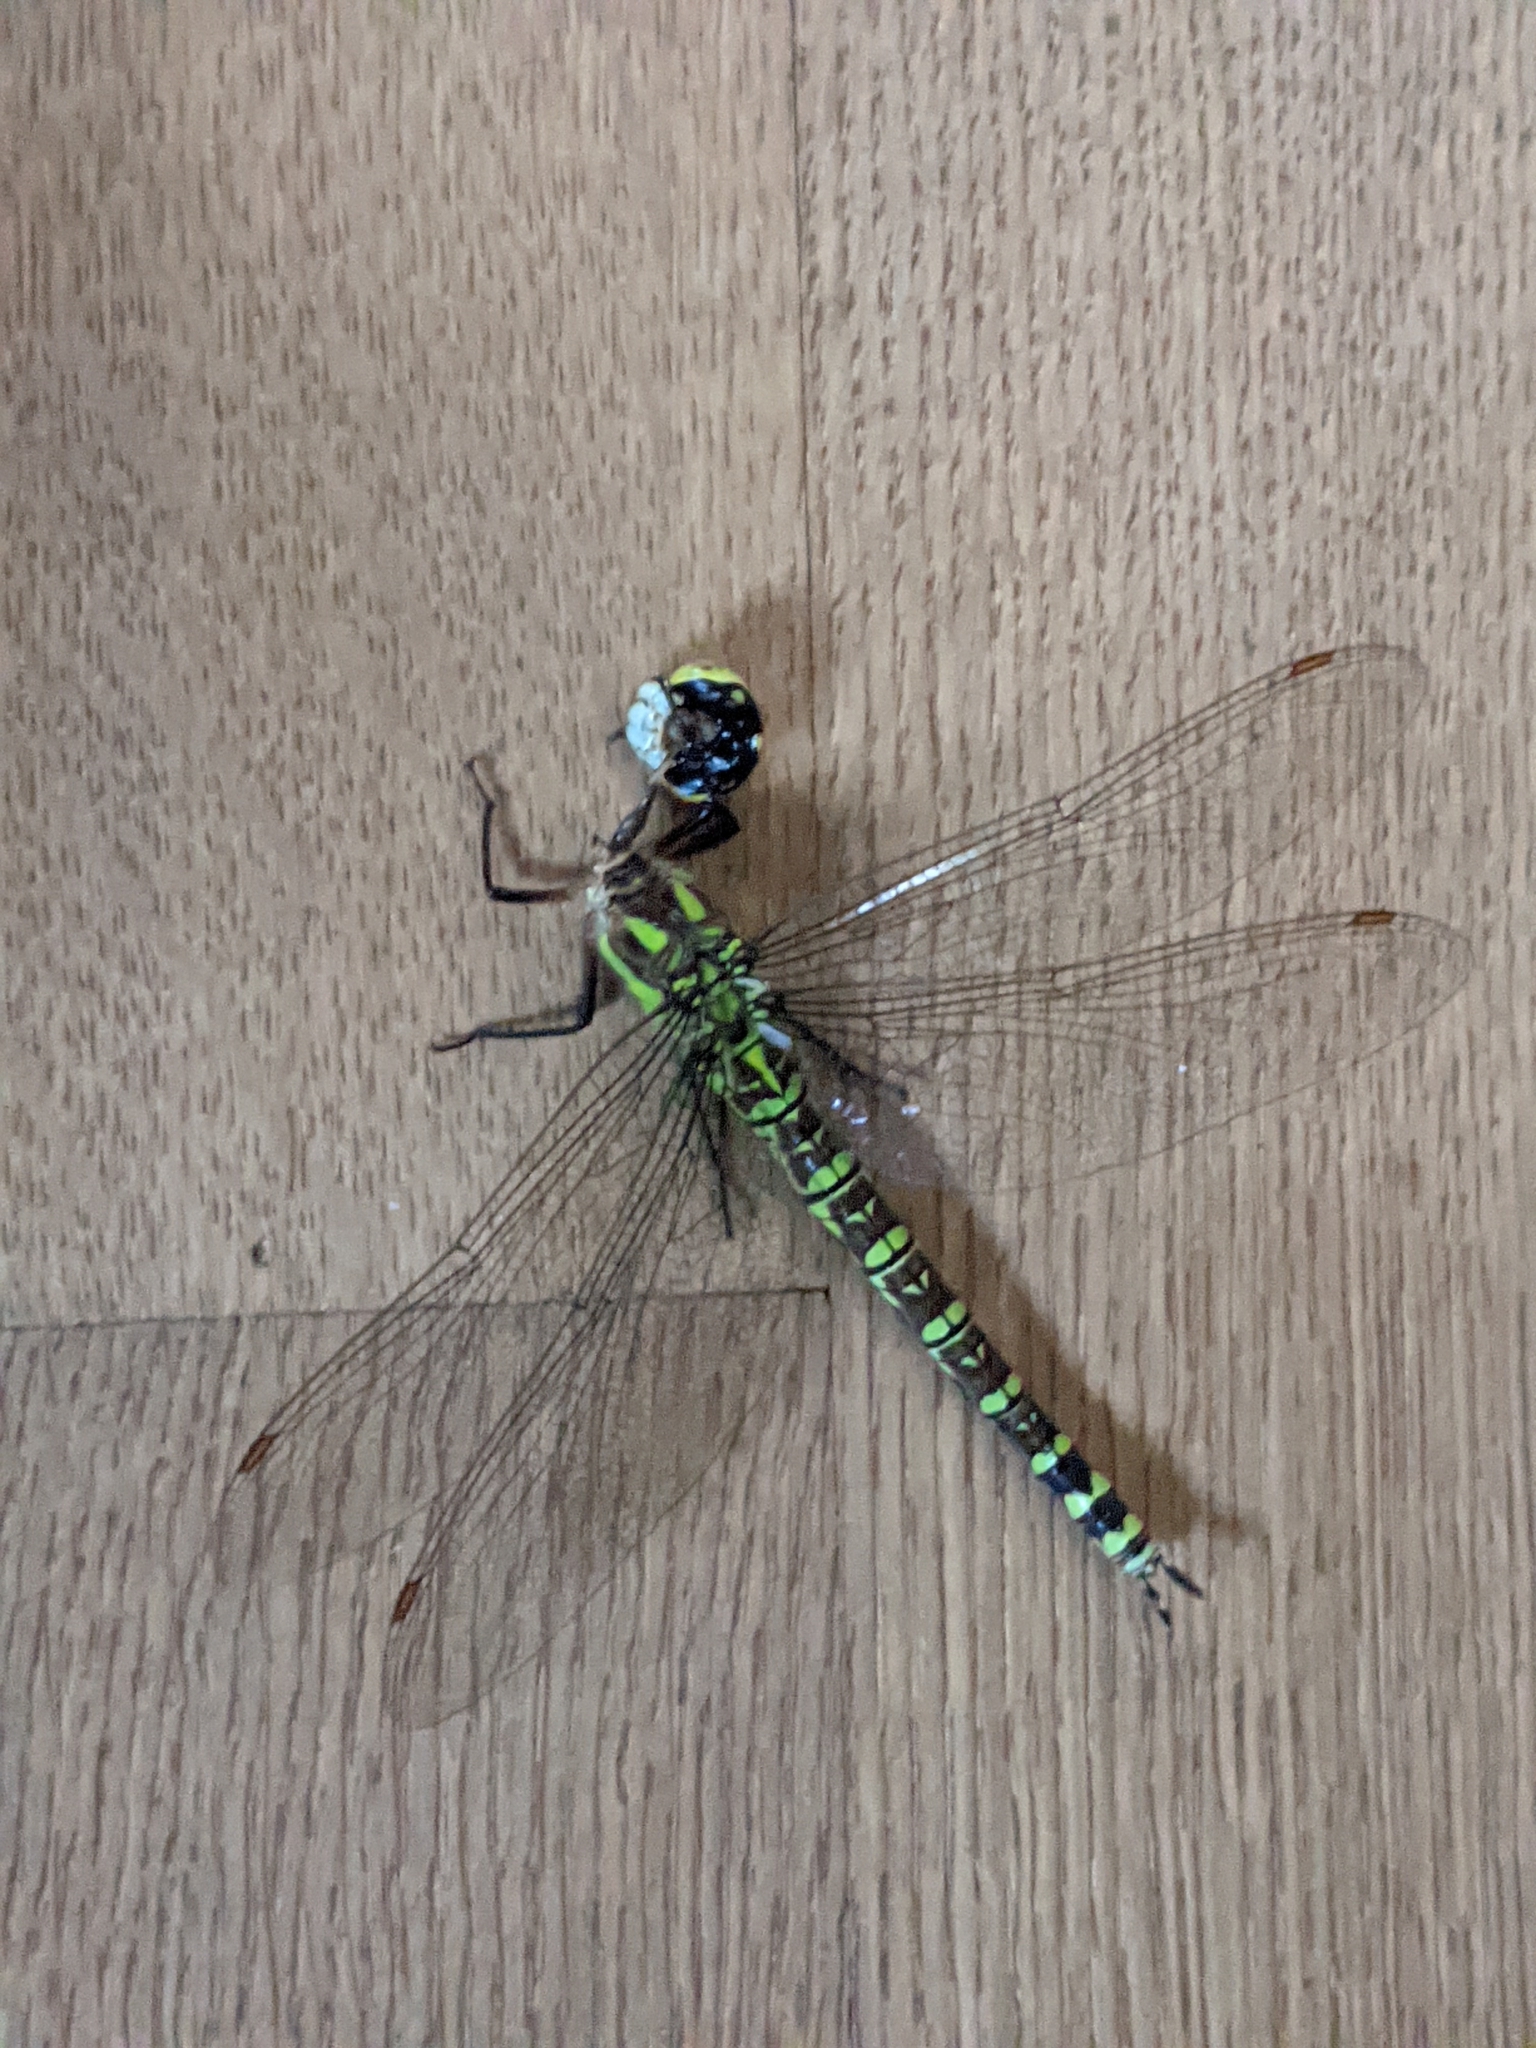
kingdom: Animalia
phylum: Arthropoda
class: Insecta
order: Odonata
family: Aeshnidae
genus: Aeshna
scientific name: Aeshna cyanea
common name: Southern hawker
